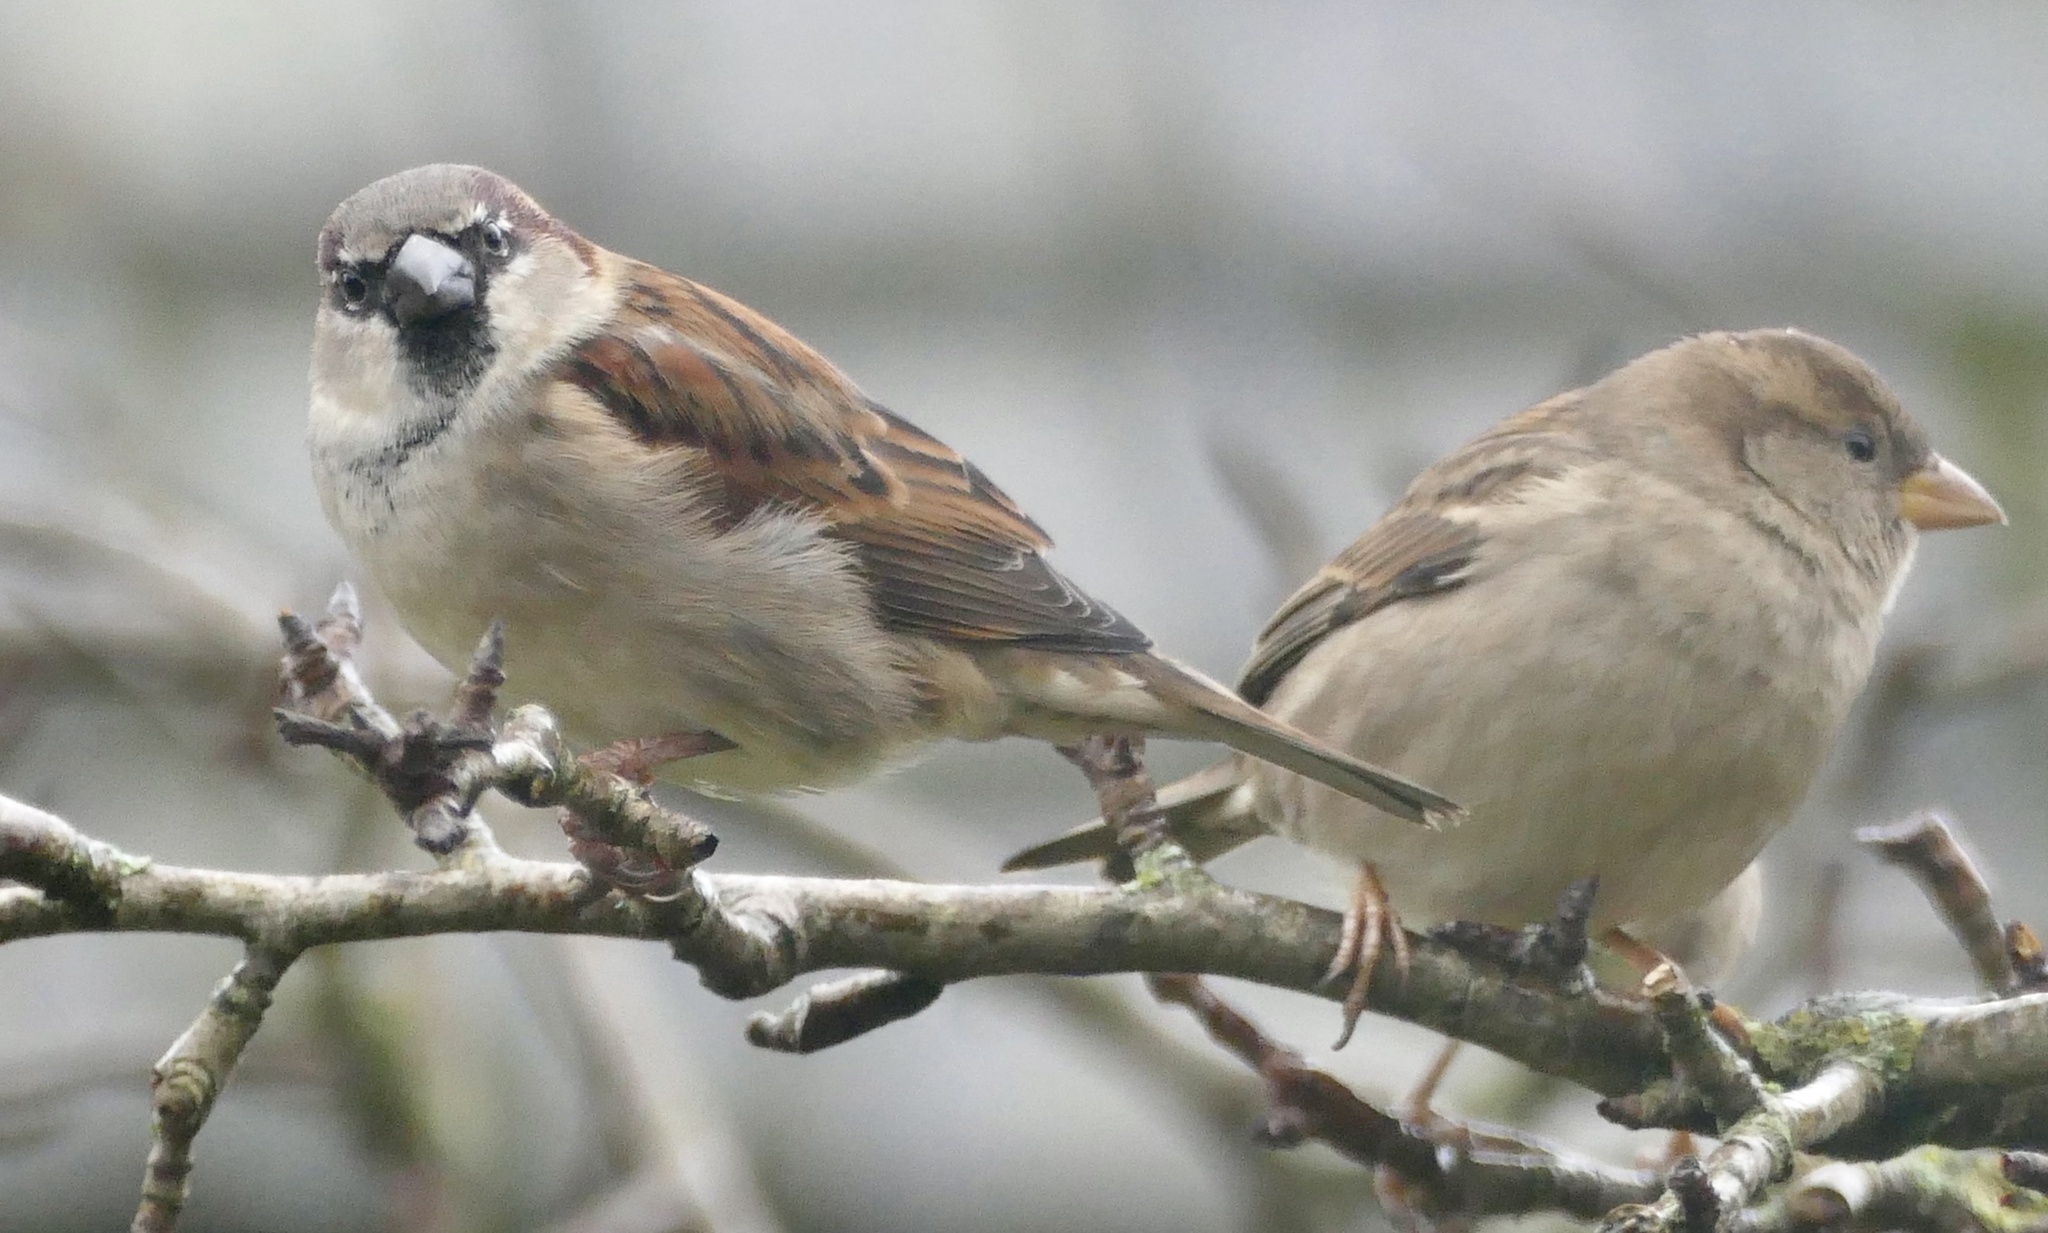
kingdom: Animalia
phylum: Chordata
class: Aves
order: Passeriformes
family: Passeridae
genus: Passer
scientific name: Passer domesticus
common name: House sparrow
